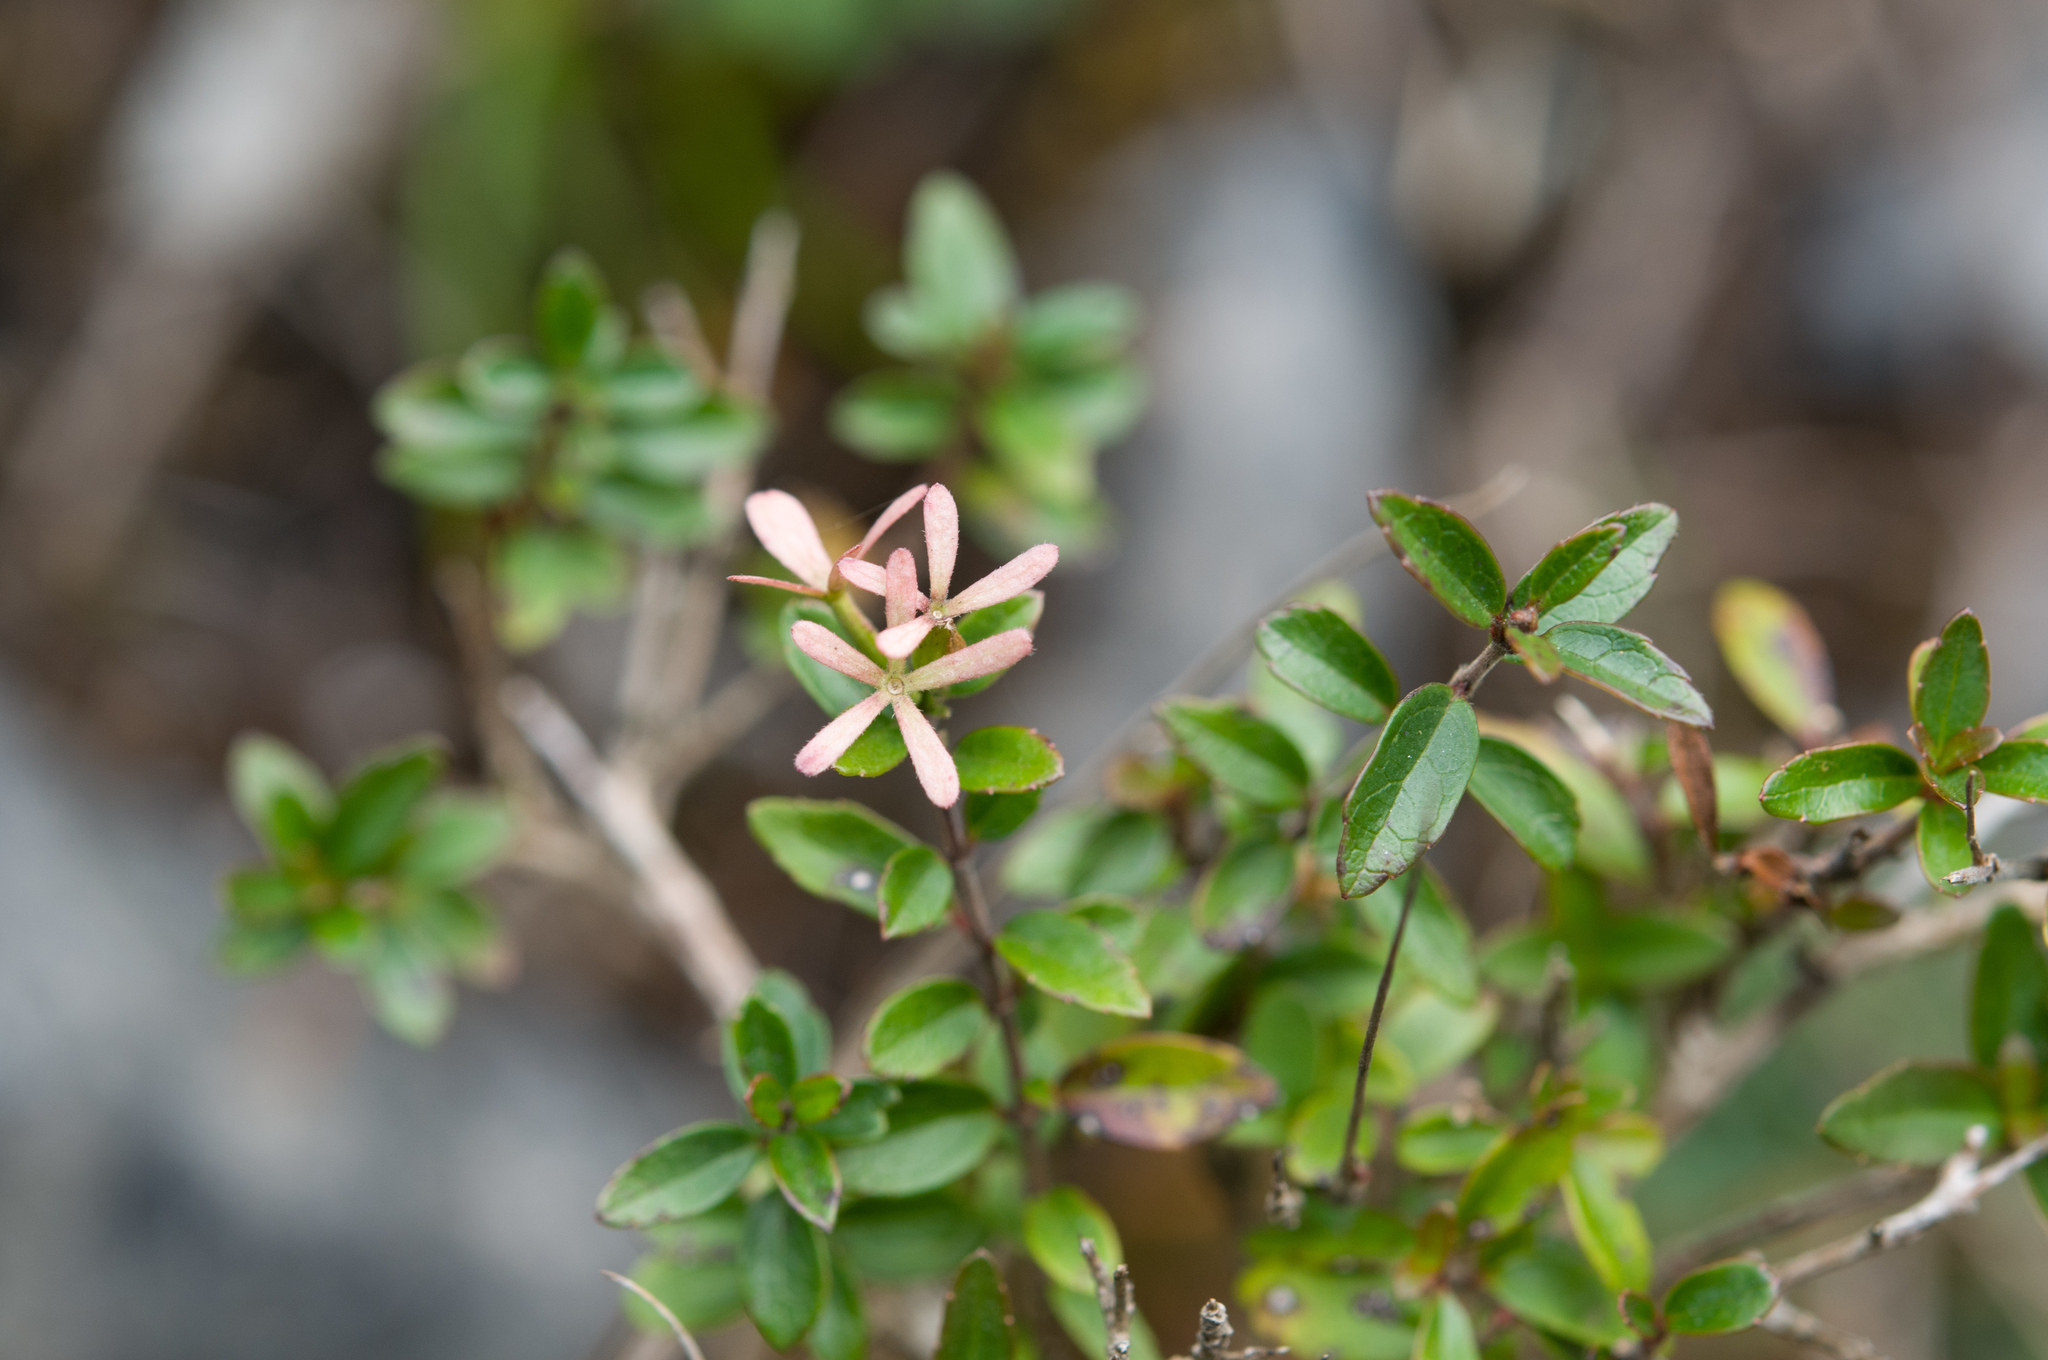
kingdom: Plantae
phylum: Tracheophyta
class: Magnoliopsida
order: Dipsacales
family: Caprifoliaceae
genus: Abelia
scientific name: Abelia chinensis
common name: Chinese abelia
